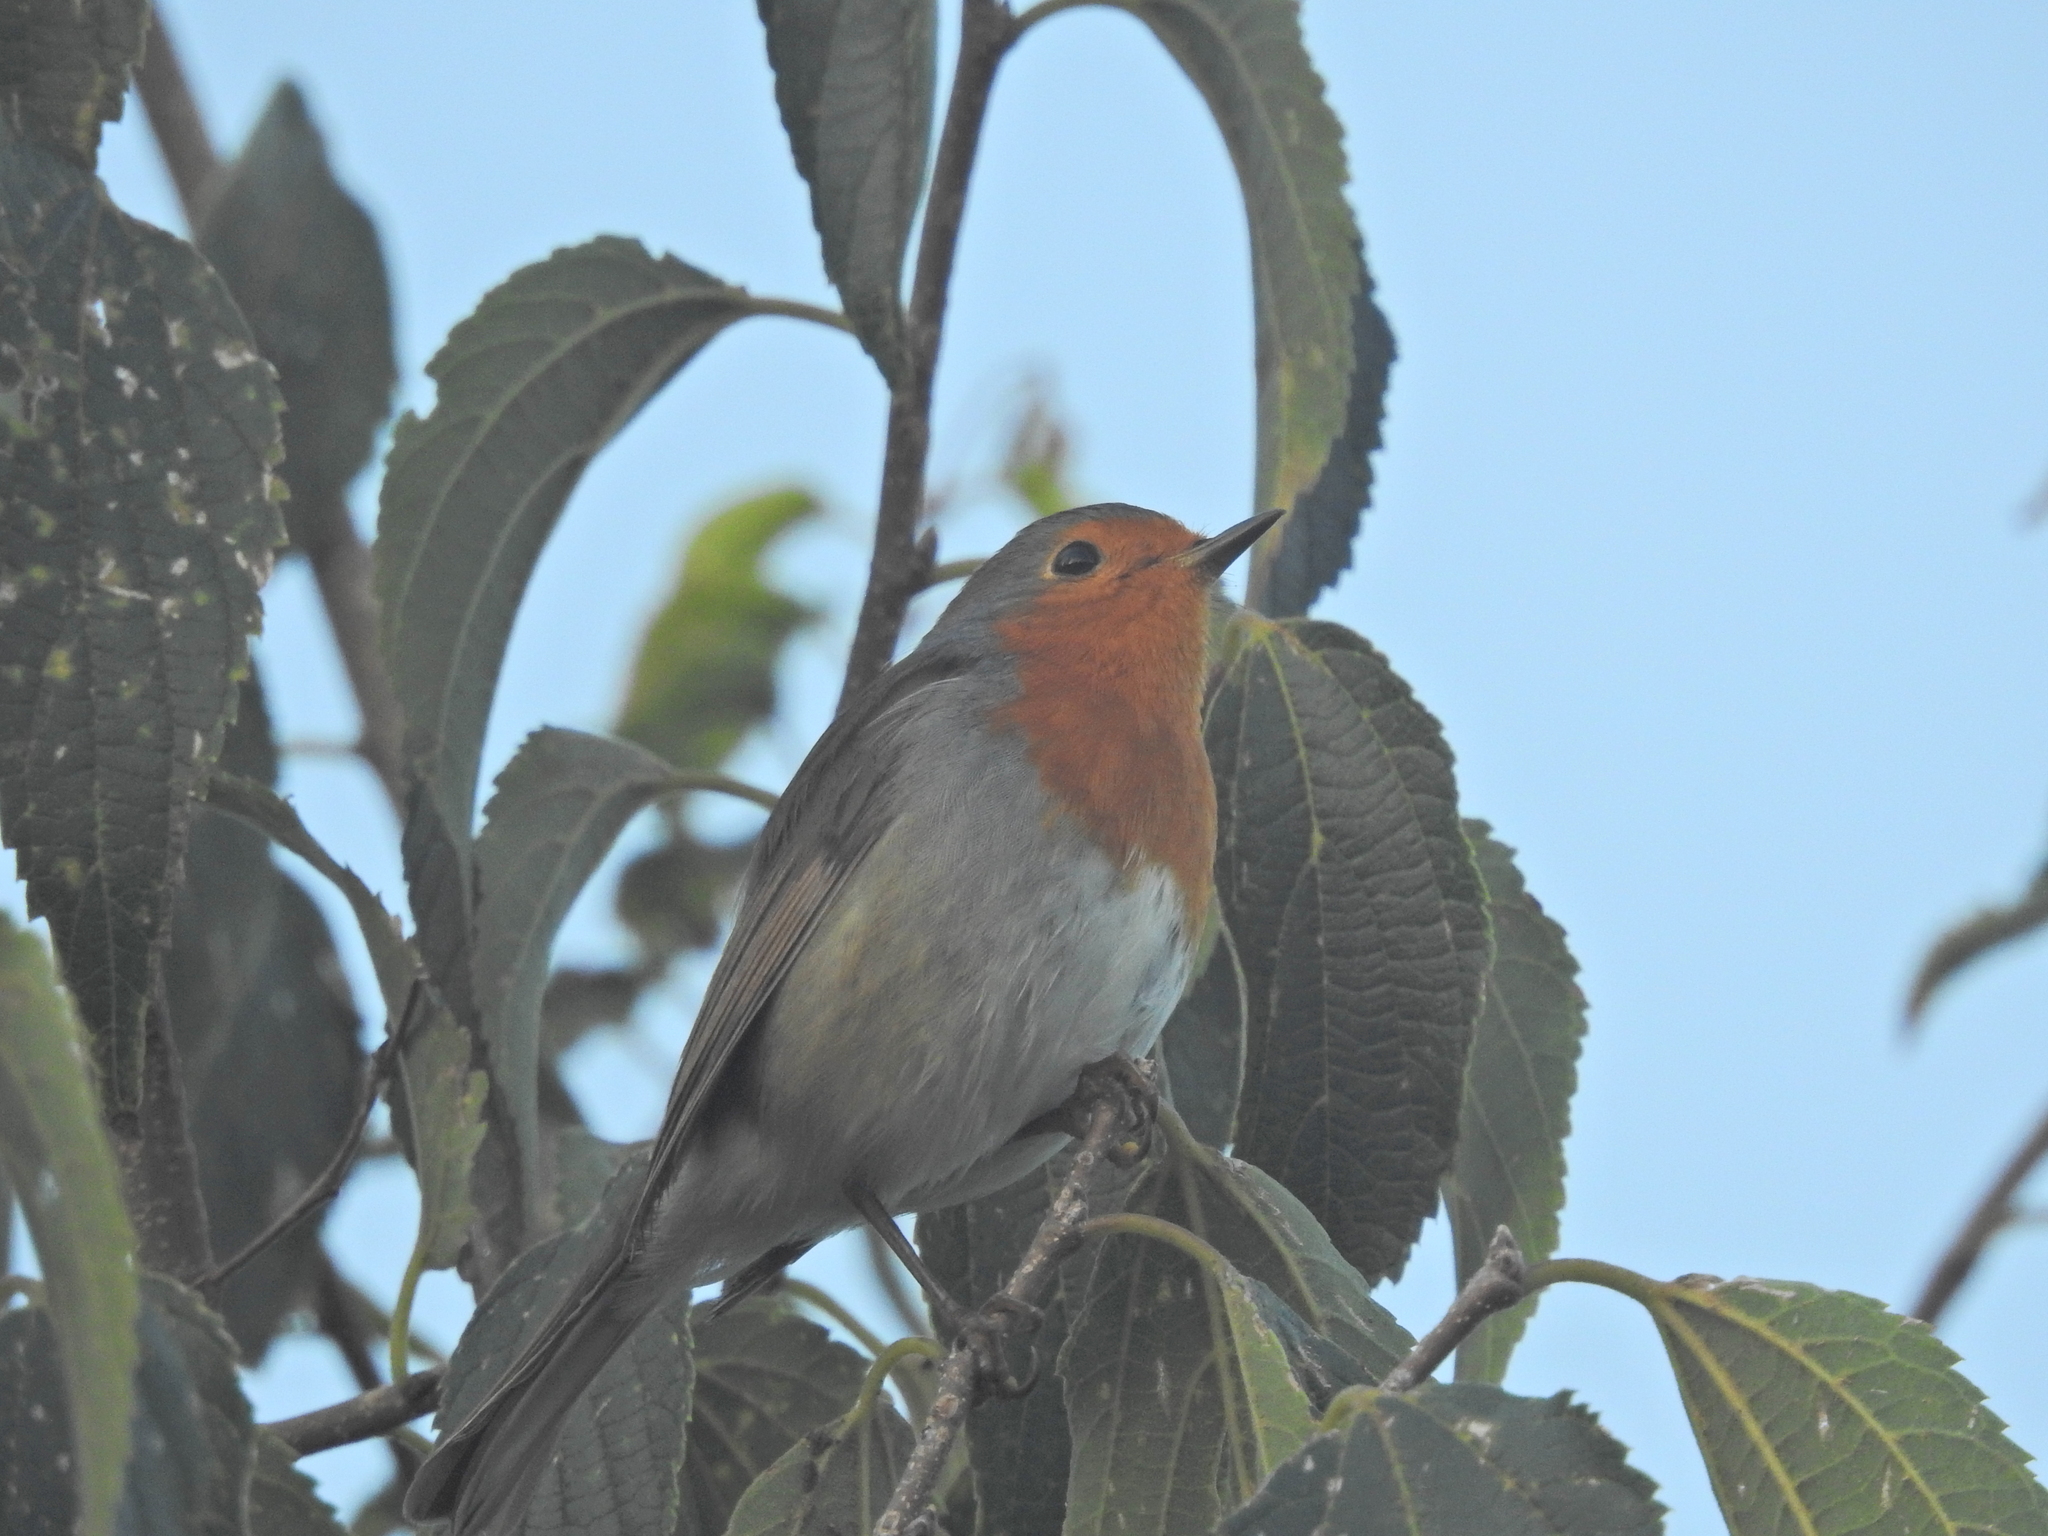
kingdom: Animalia
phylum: Chordata
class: Aves
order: Passeriformes
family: Muscicapidae
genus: Erithacus
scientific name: Erithacus rubecula
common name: European robin
